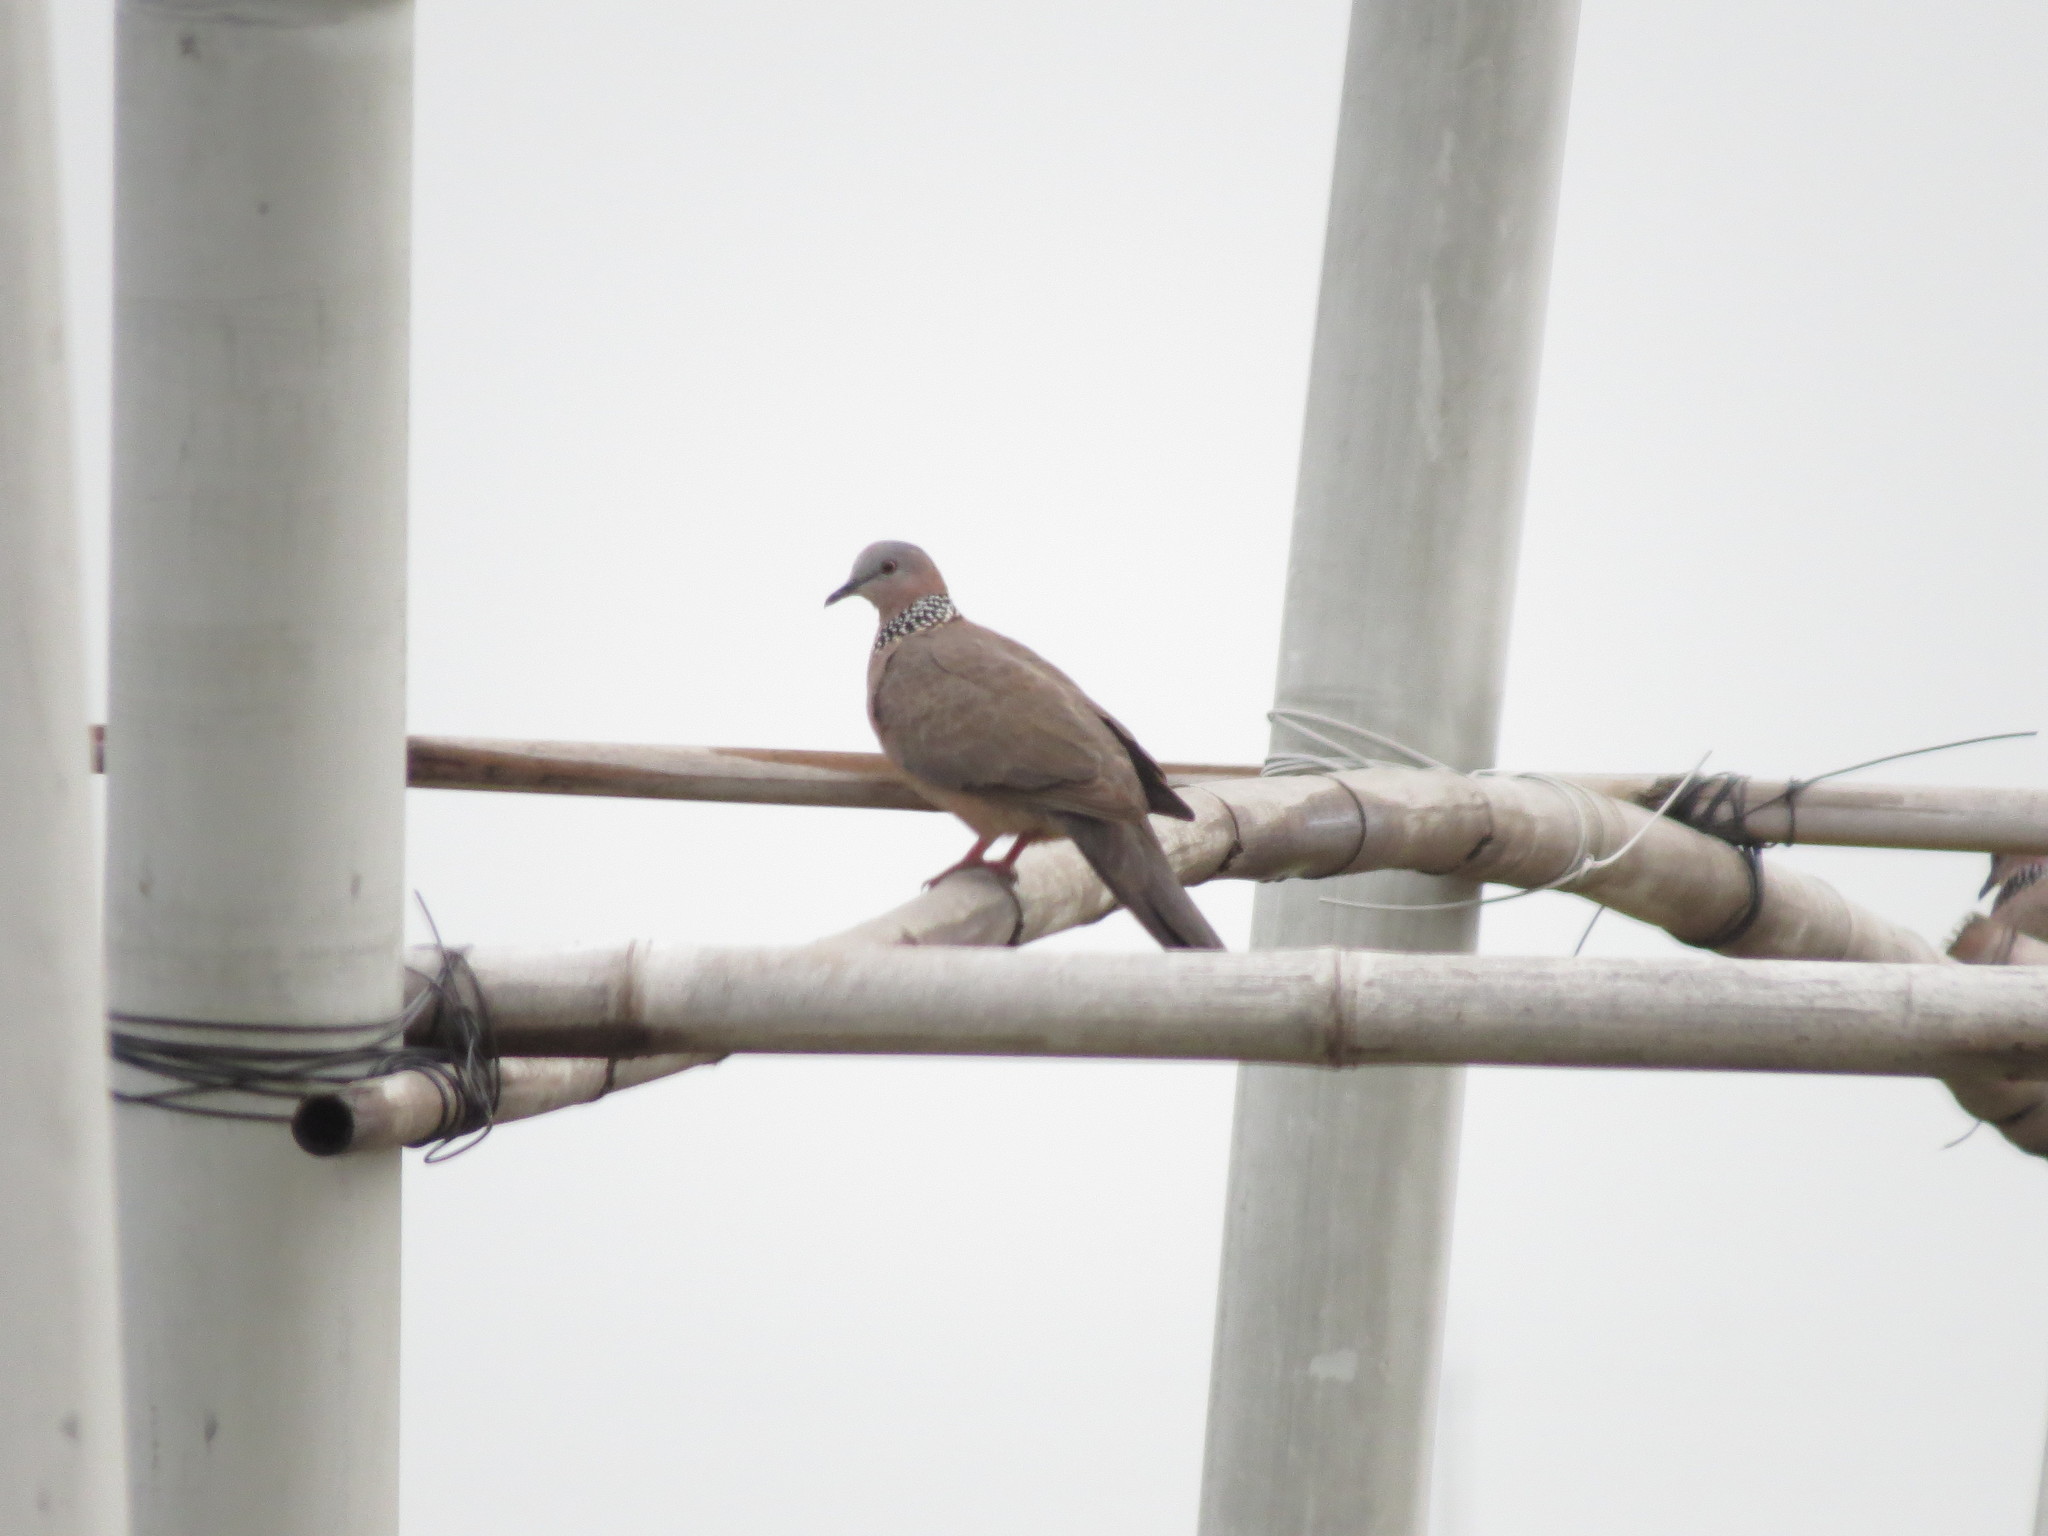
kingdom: Animalia
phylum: Chordata
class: Aves
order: Columbiformes
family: Columbidae
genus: Spilopelia
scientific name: Spilopelia chinensis
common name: Spotted dove
